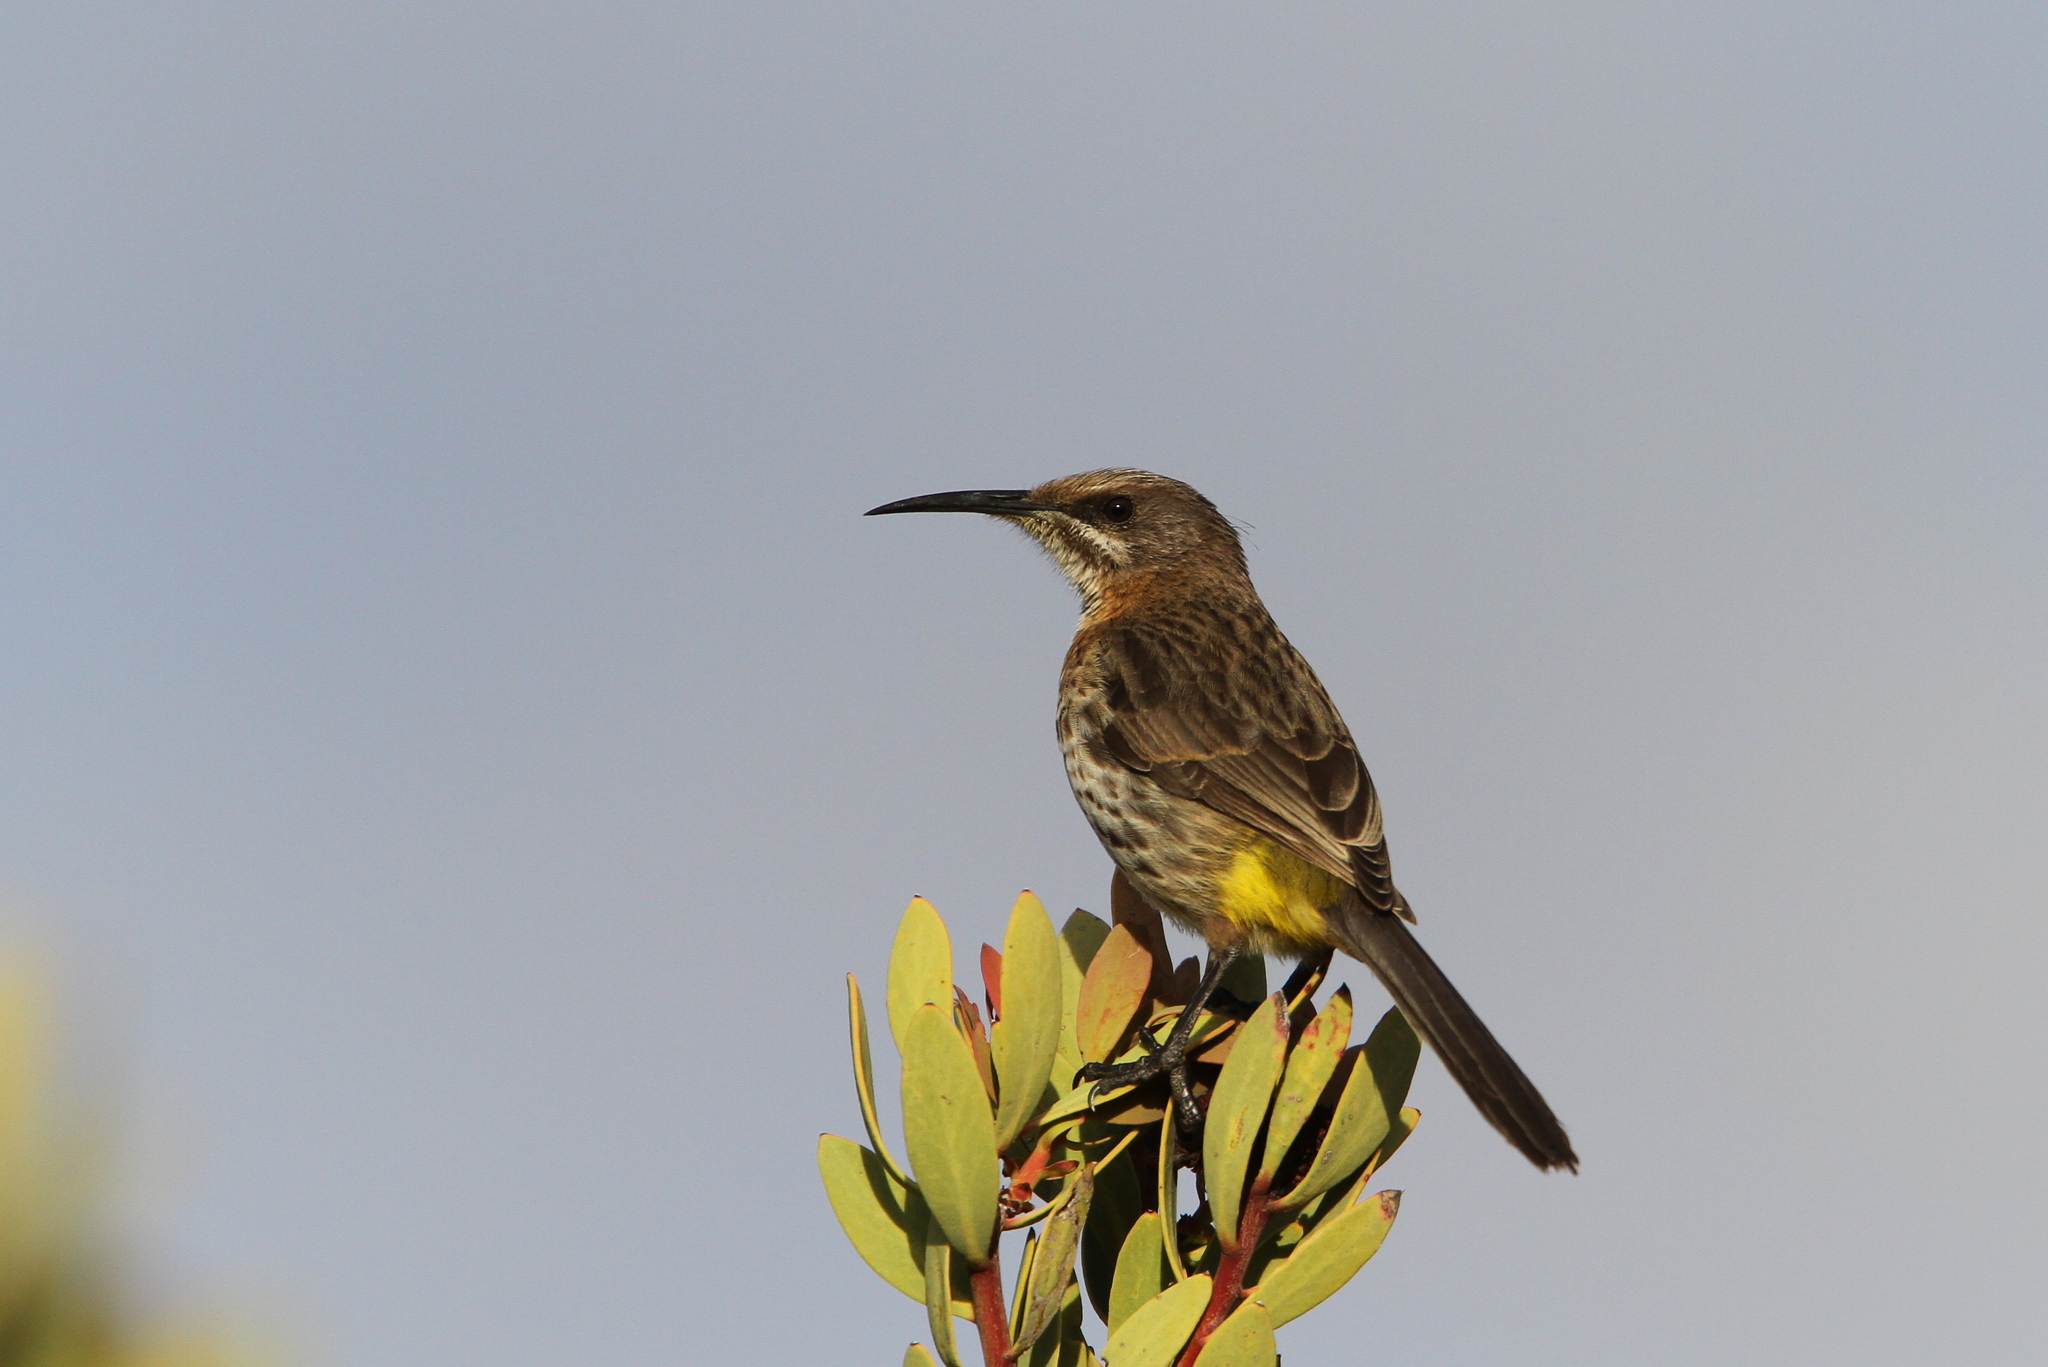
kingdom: Animalia
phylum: Chordata
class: Aves
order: Passeriformes
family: Promeropidae
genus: Promerops
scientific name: Promerops cafer
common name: Cape sugarbird
